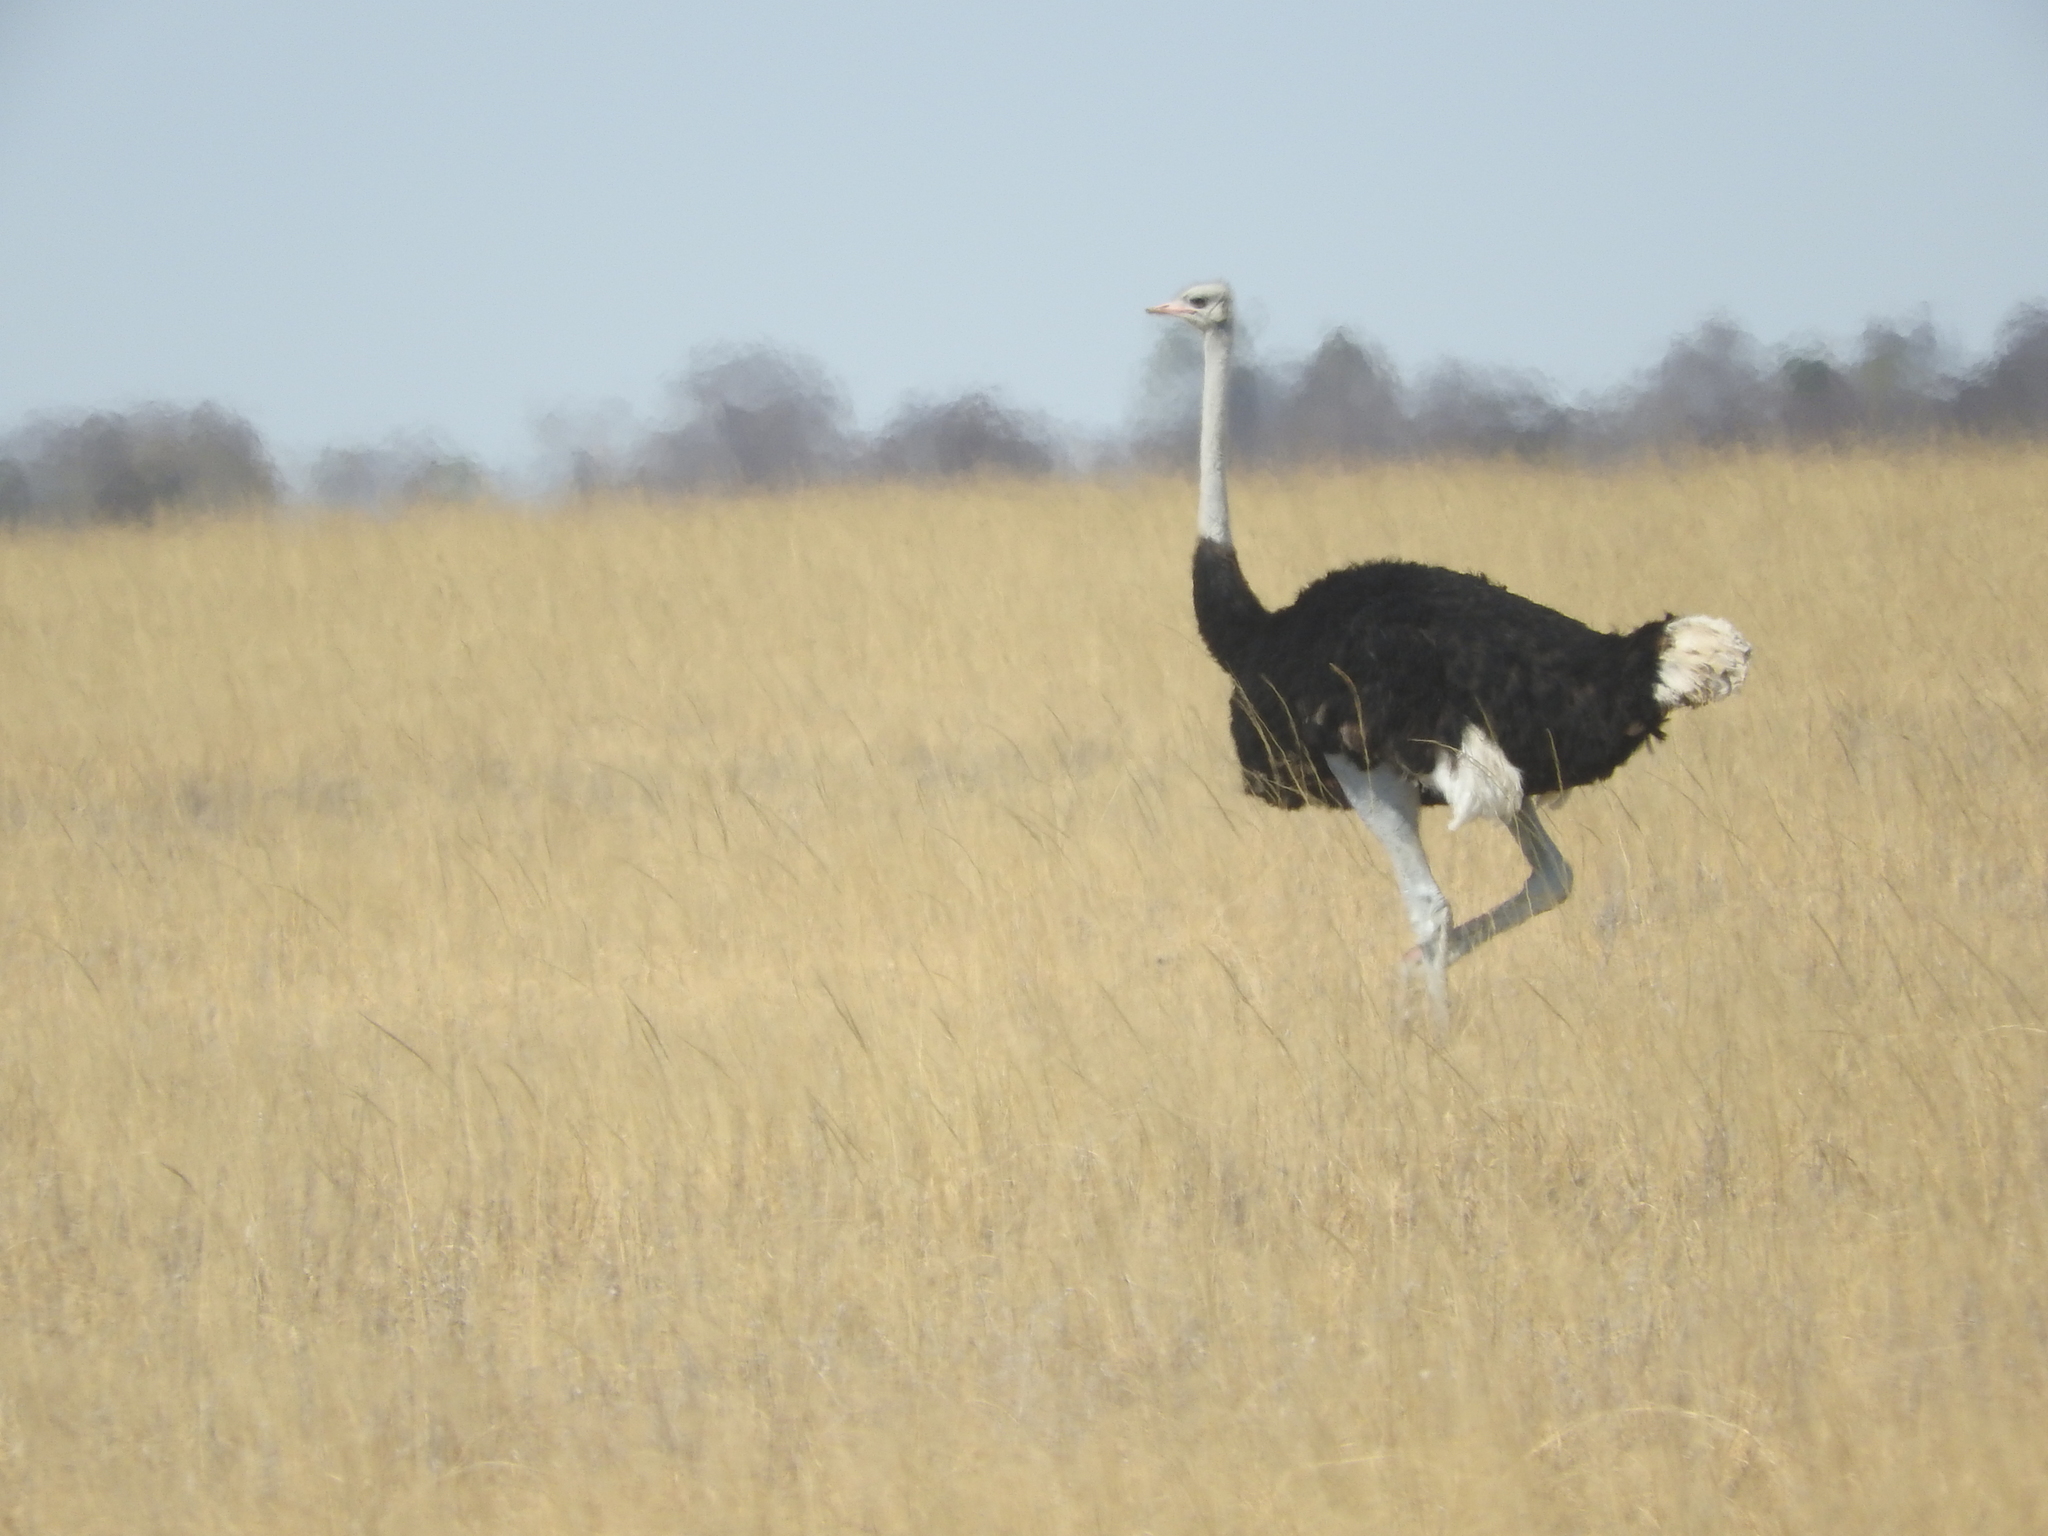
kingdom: Animalia
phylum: Chordata
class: Aves
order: Struthioniformes
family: Struthionidae
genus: Struthio
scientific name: Struthio camelus
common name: Common ostrich
